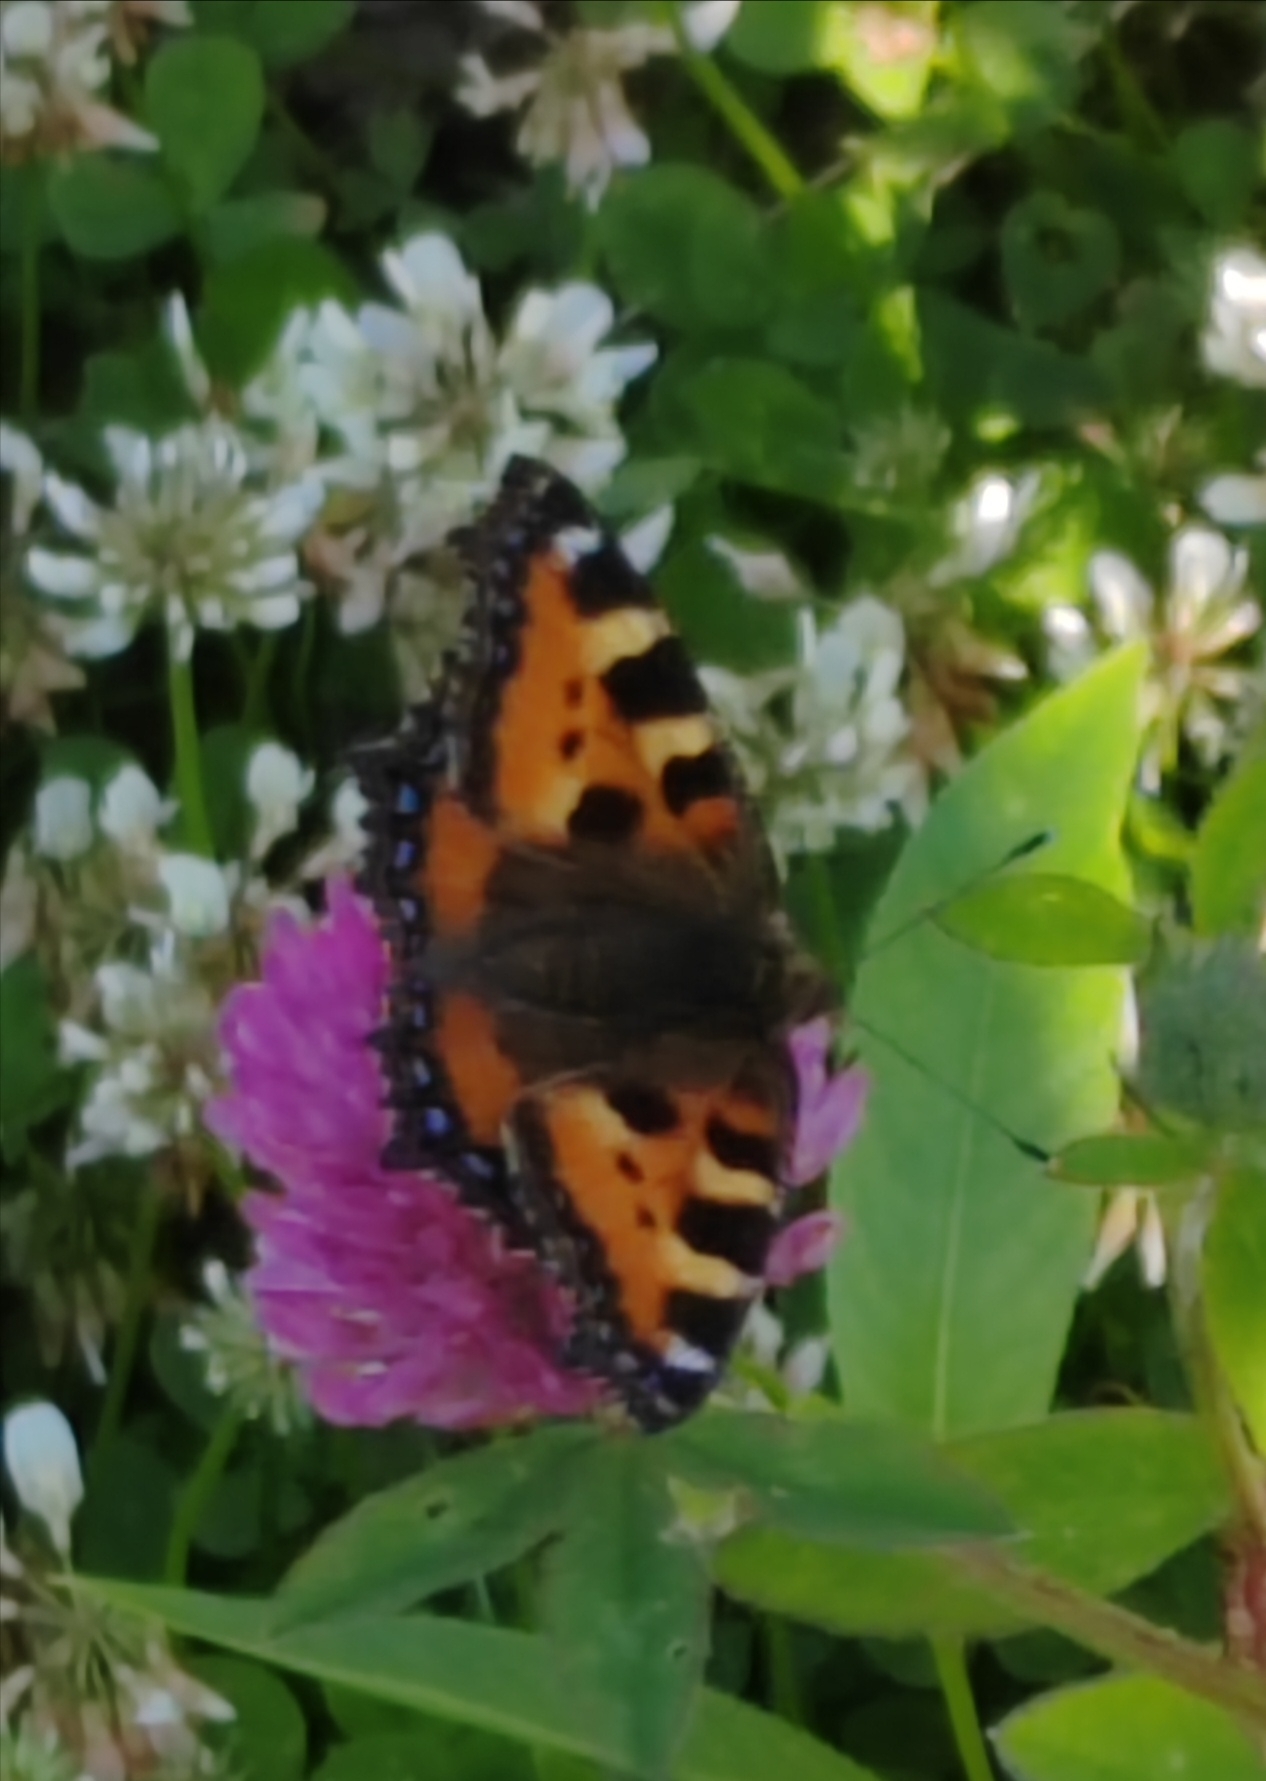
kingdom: Animalia
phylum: Arthropoda
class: Insecta
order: Lepidoptera
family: Nymphalidae
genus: Aglais
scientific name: Aglais urticae
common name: Small tortoiseshell
